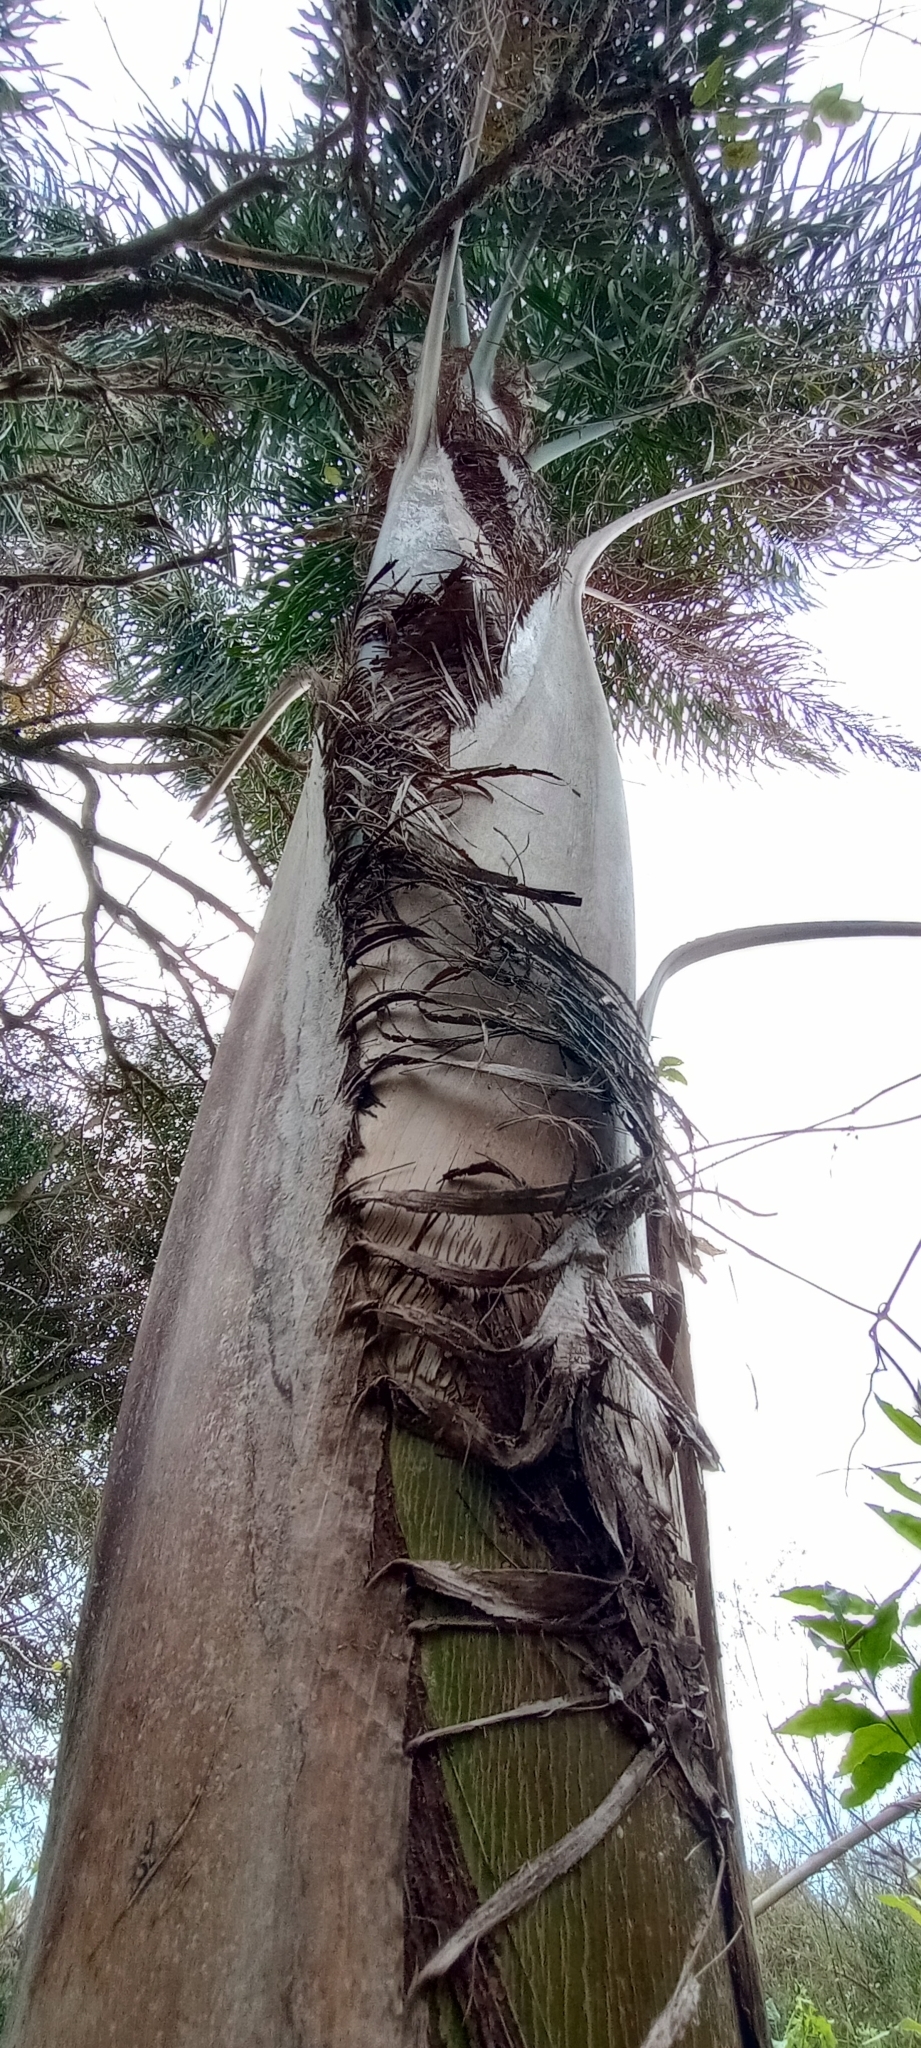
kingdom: Plantae
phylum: Tracheophyta
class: Liliopsida
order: Arecales
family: Arecaceae
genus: Syagrus
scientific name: Syagrus romanzoffiana
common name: Queen palm
